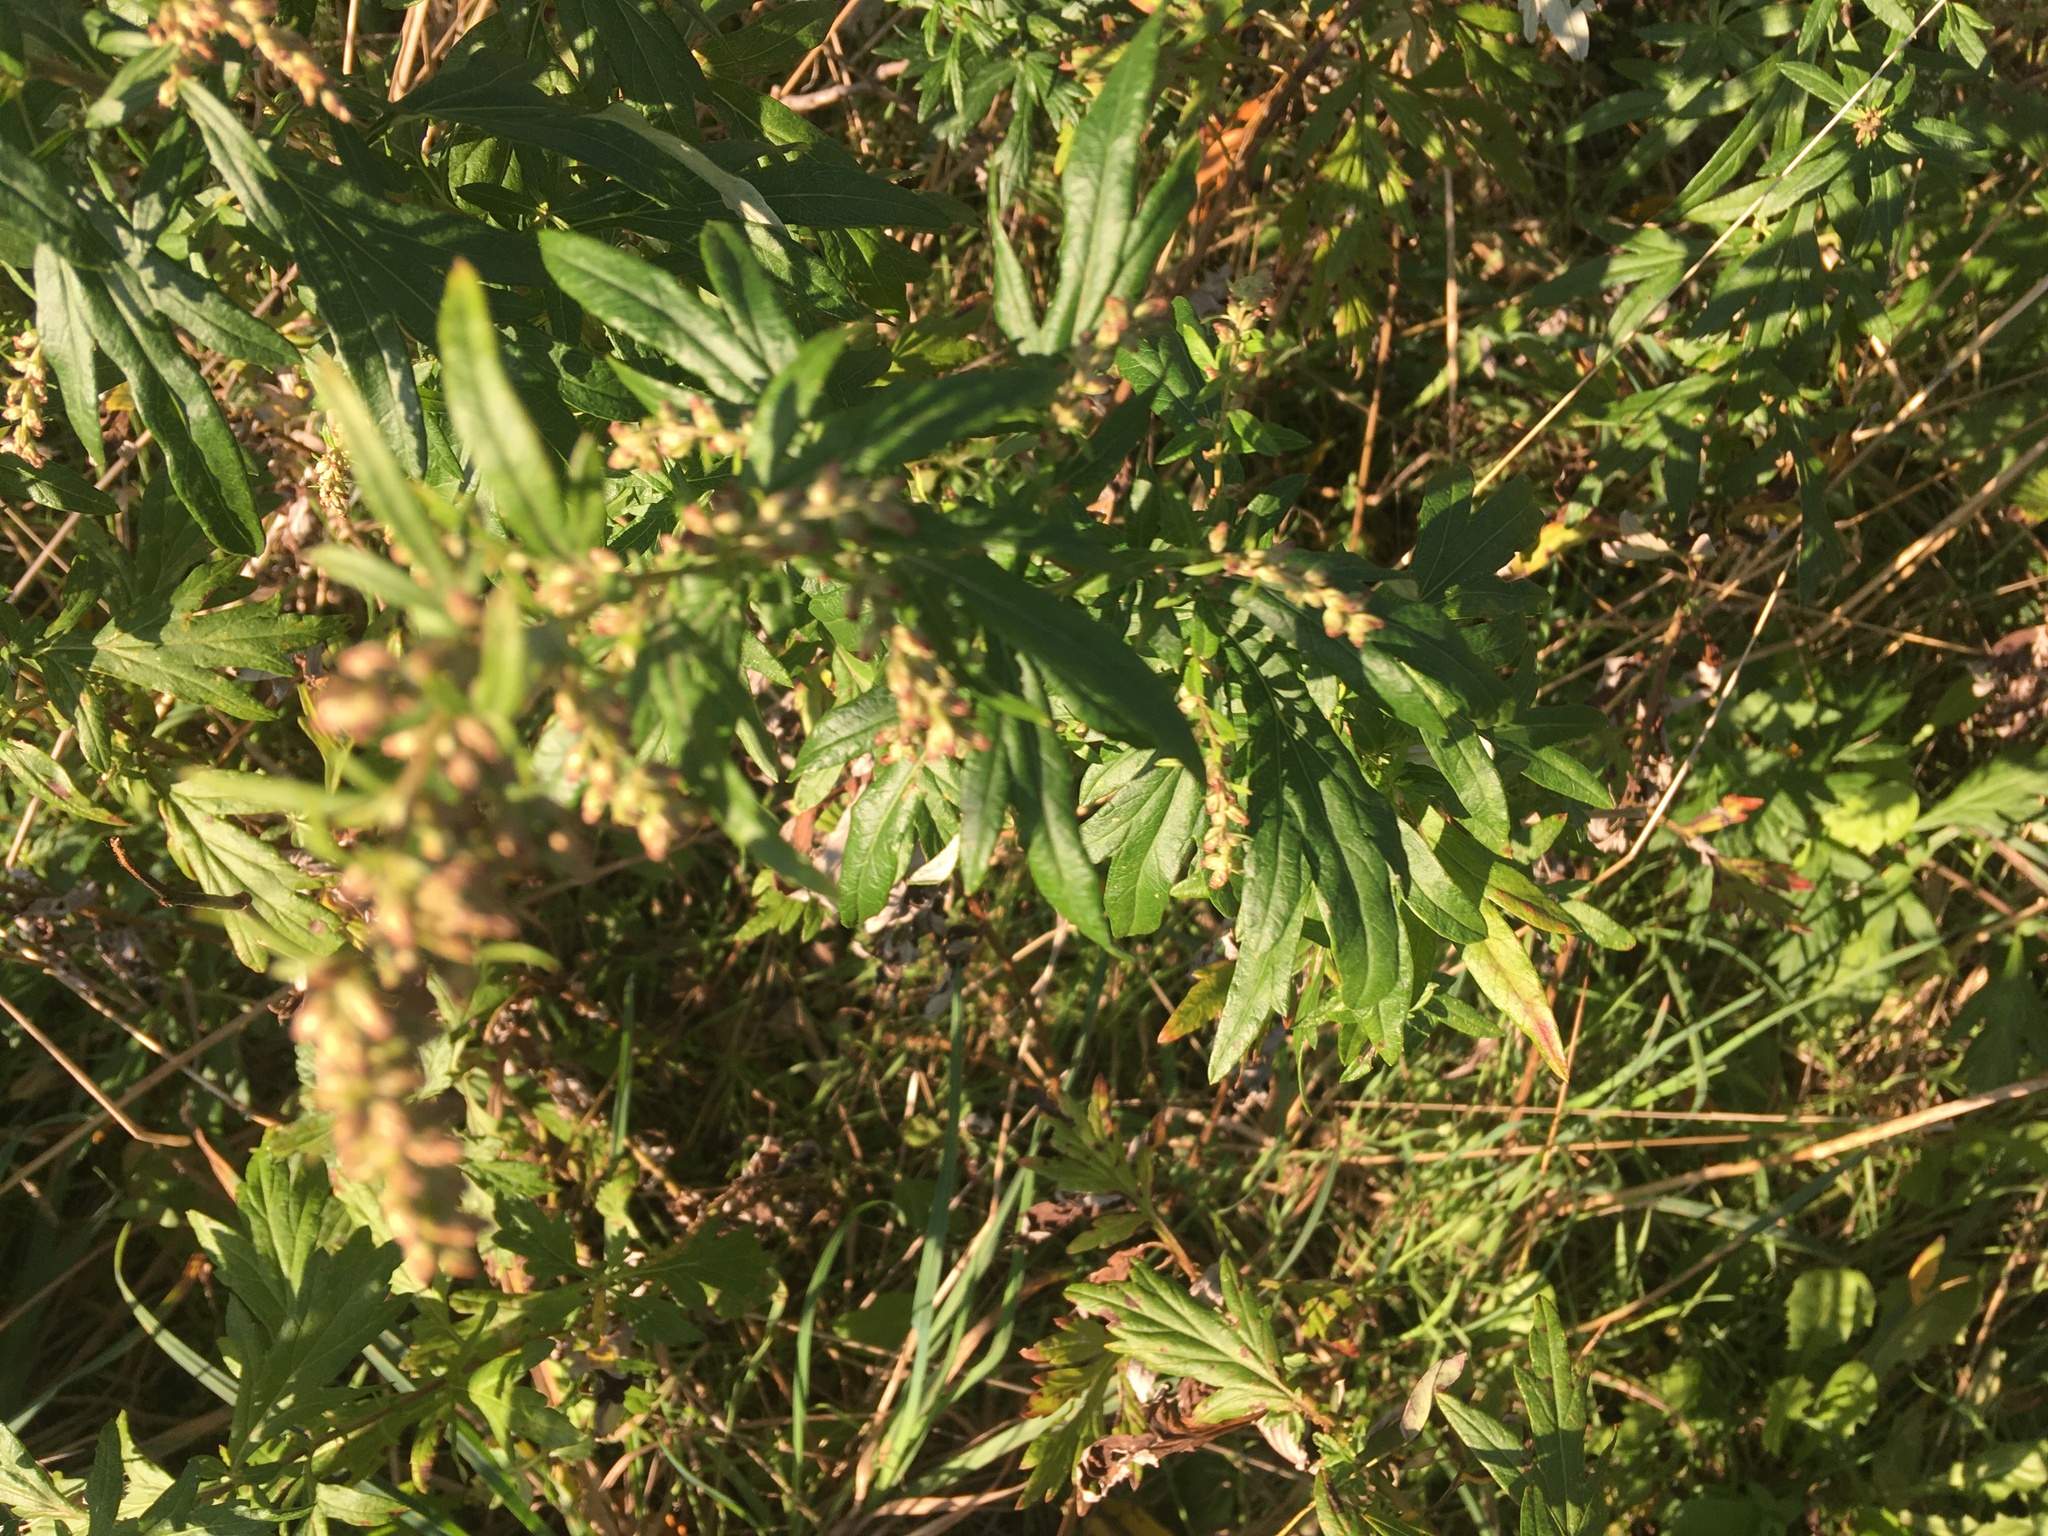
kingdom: Plantae
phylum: Tracheophyta
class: Magnoliopsida
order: Asterales
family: Asteraceae
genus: Artemisia
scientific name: Artemisia vulgaris
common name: Mugwort
